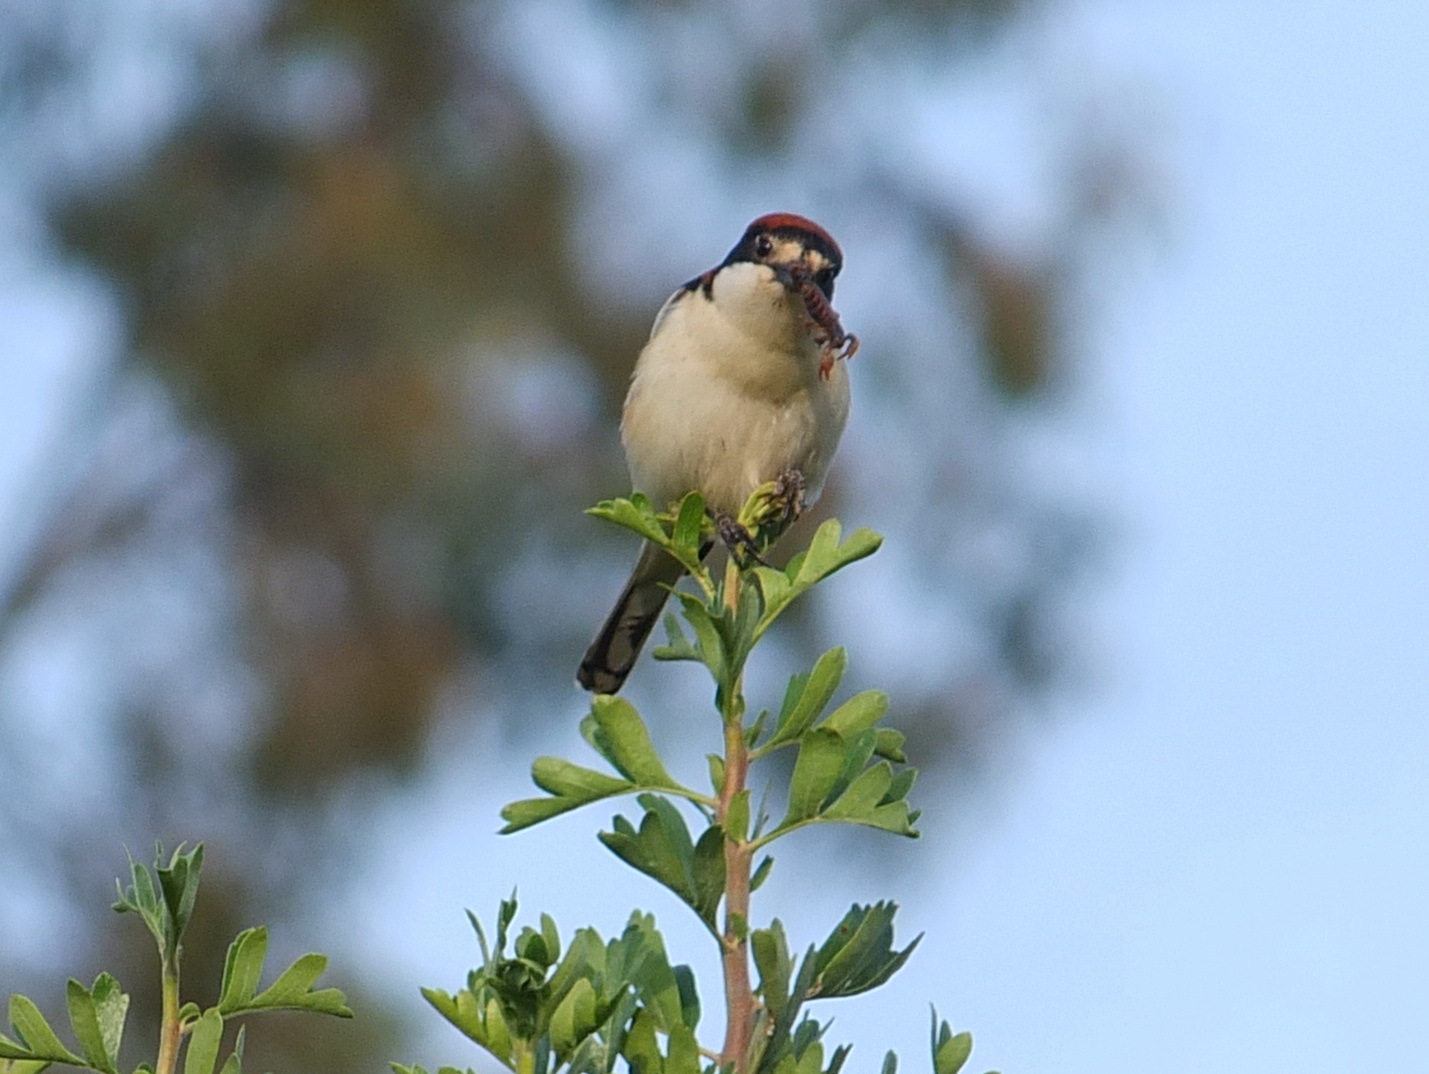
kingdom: Animalia
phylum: Chordata
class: Aves
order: Passeriformes
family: Laniidae
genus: Lanius
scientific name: Lanius senator
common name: Woodchat shrike
